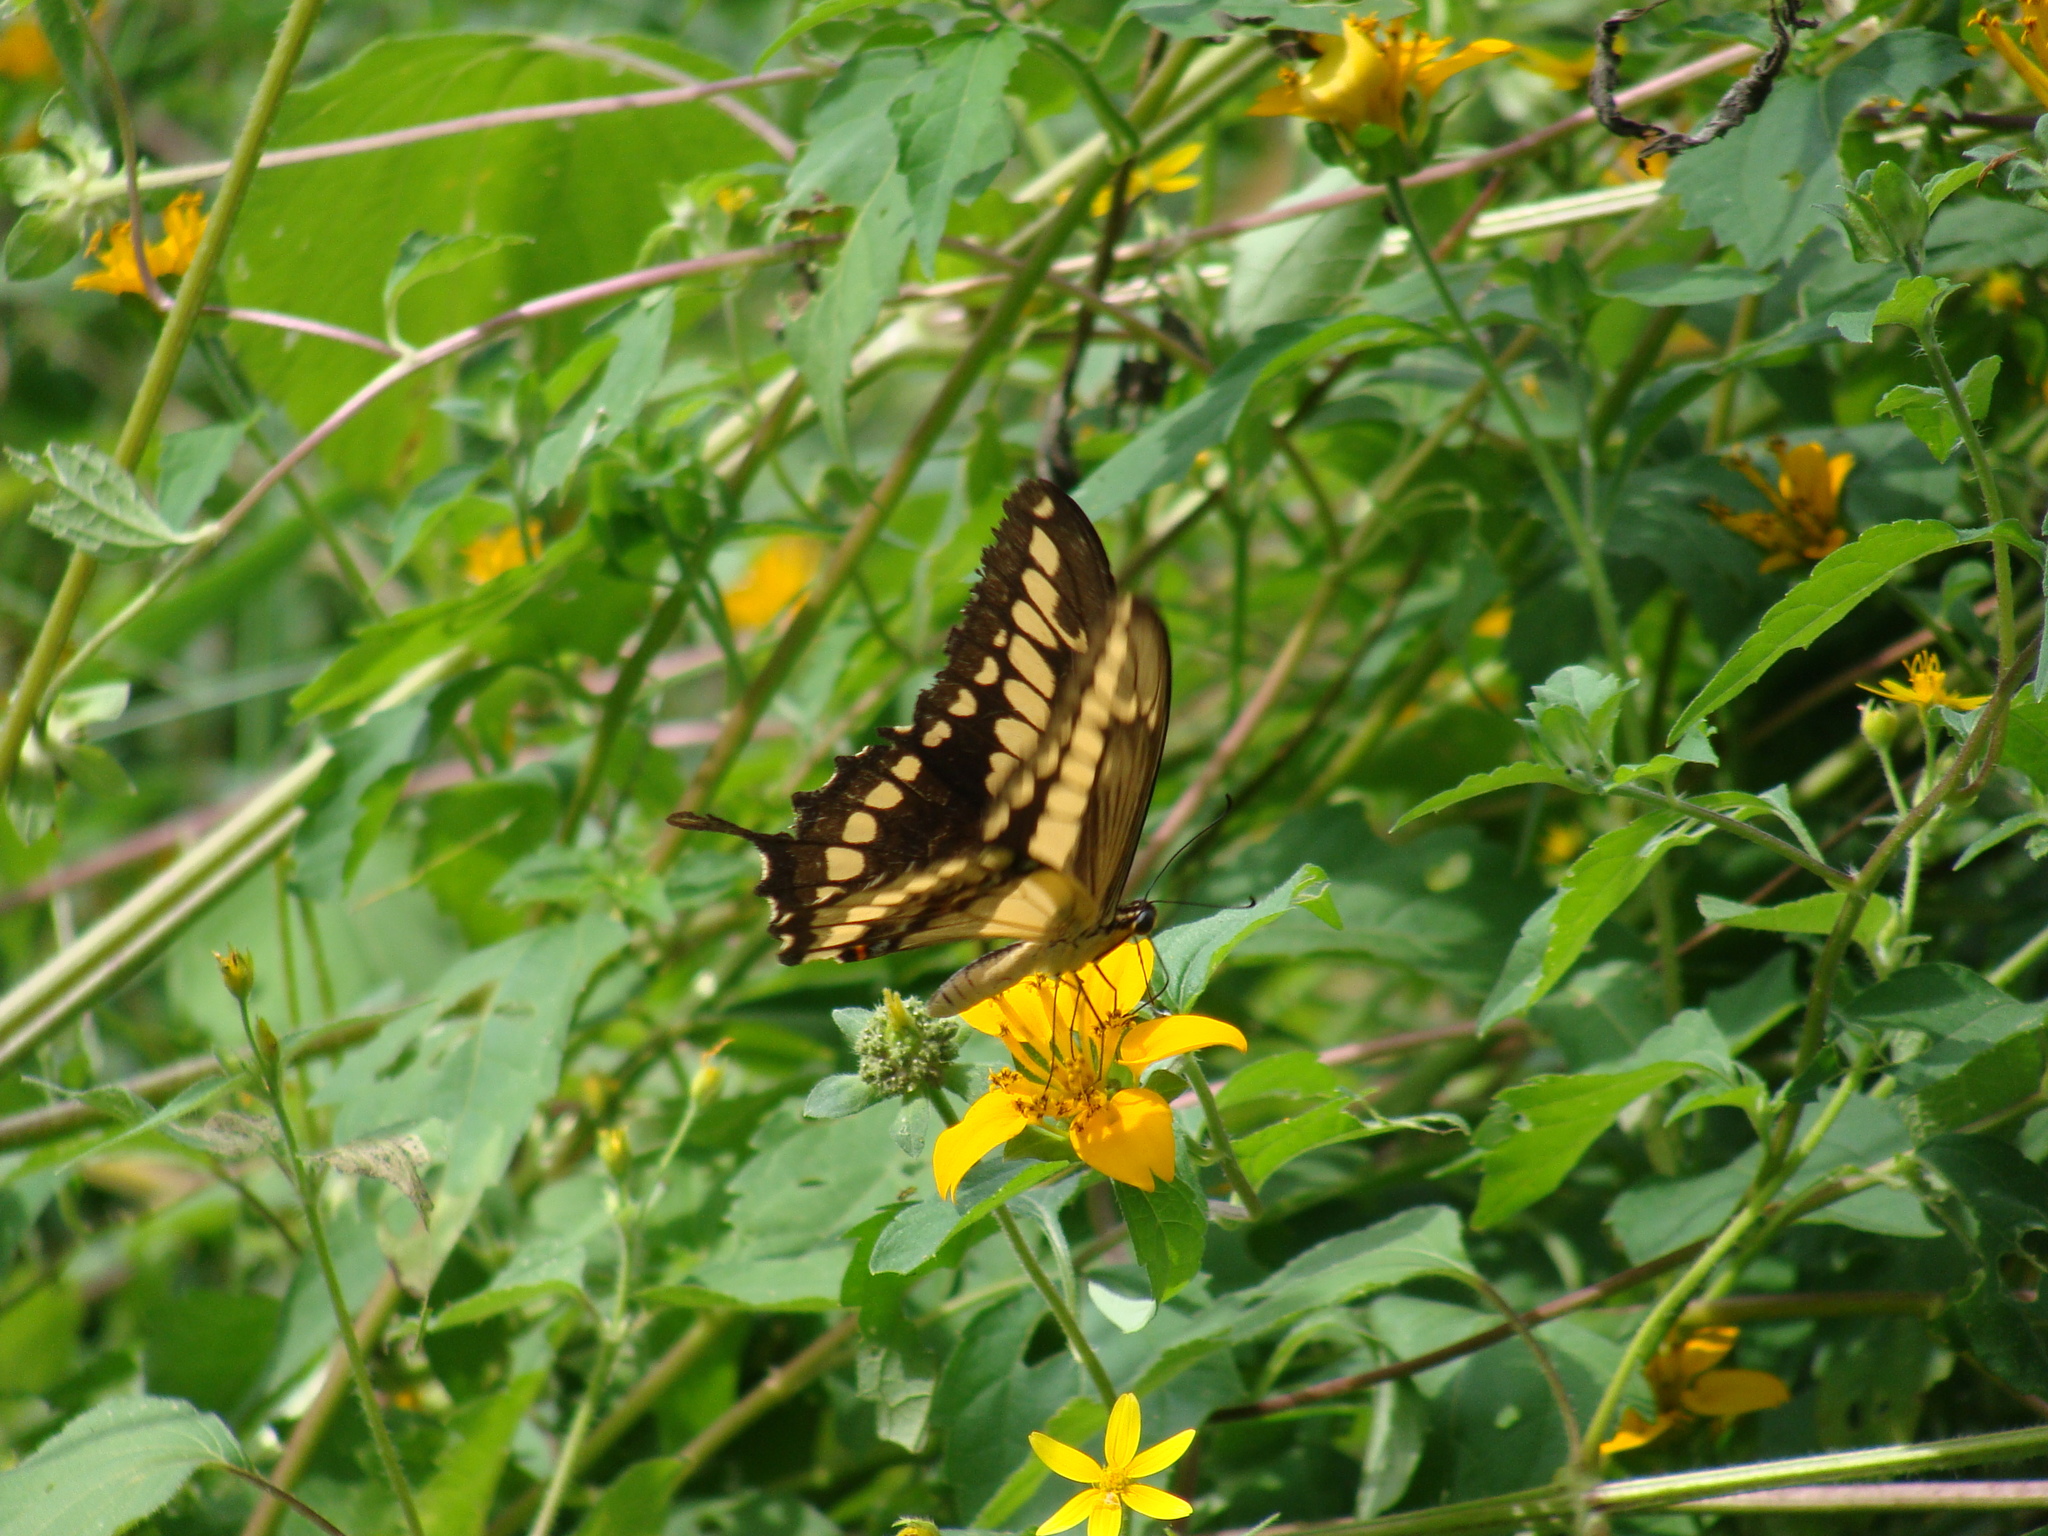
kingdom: Animalia
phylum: Arthropoda
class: Insecta
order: Lepidoptera
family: Papilionidae
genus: Papilio
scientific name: Papilio thoas
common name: King swallowtail
